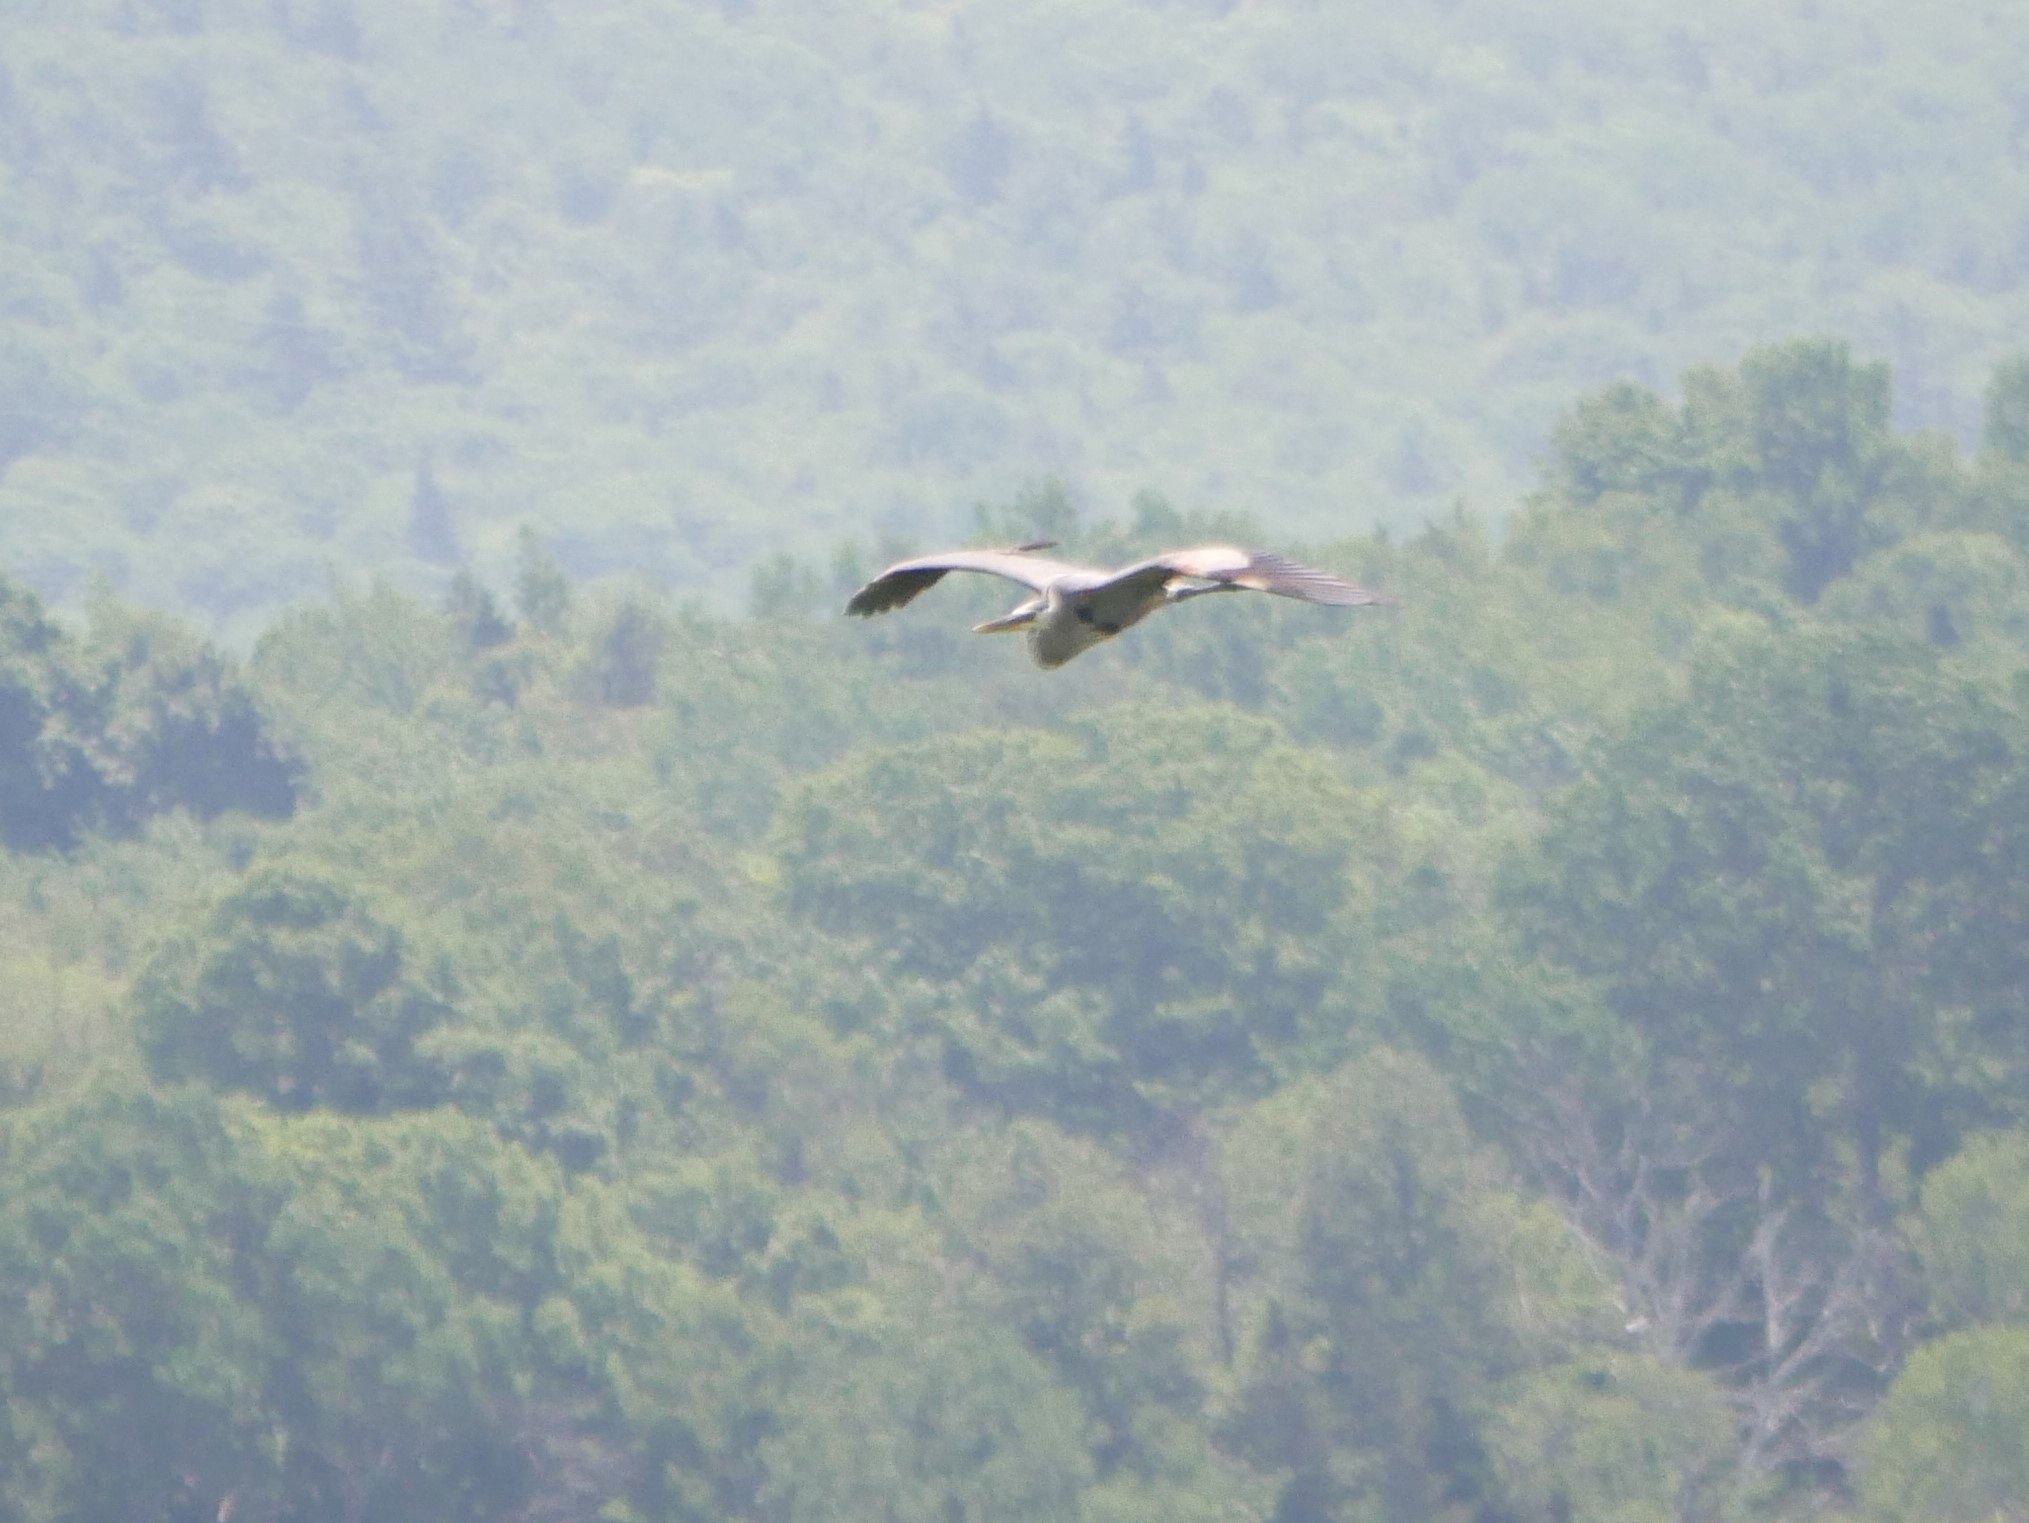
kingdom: Animalia
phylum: Chordata
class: Aves
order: Pelecaniformes
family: Ardeidae
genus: Ardea
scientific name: Ardea herodias
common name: Great blue heron
